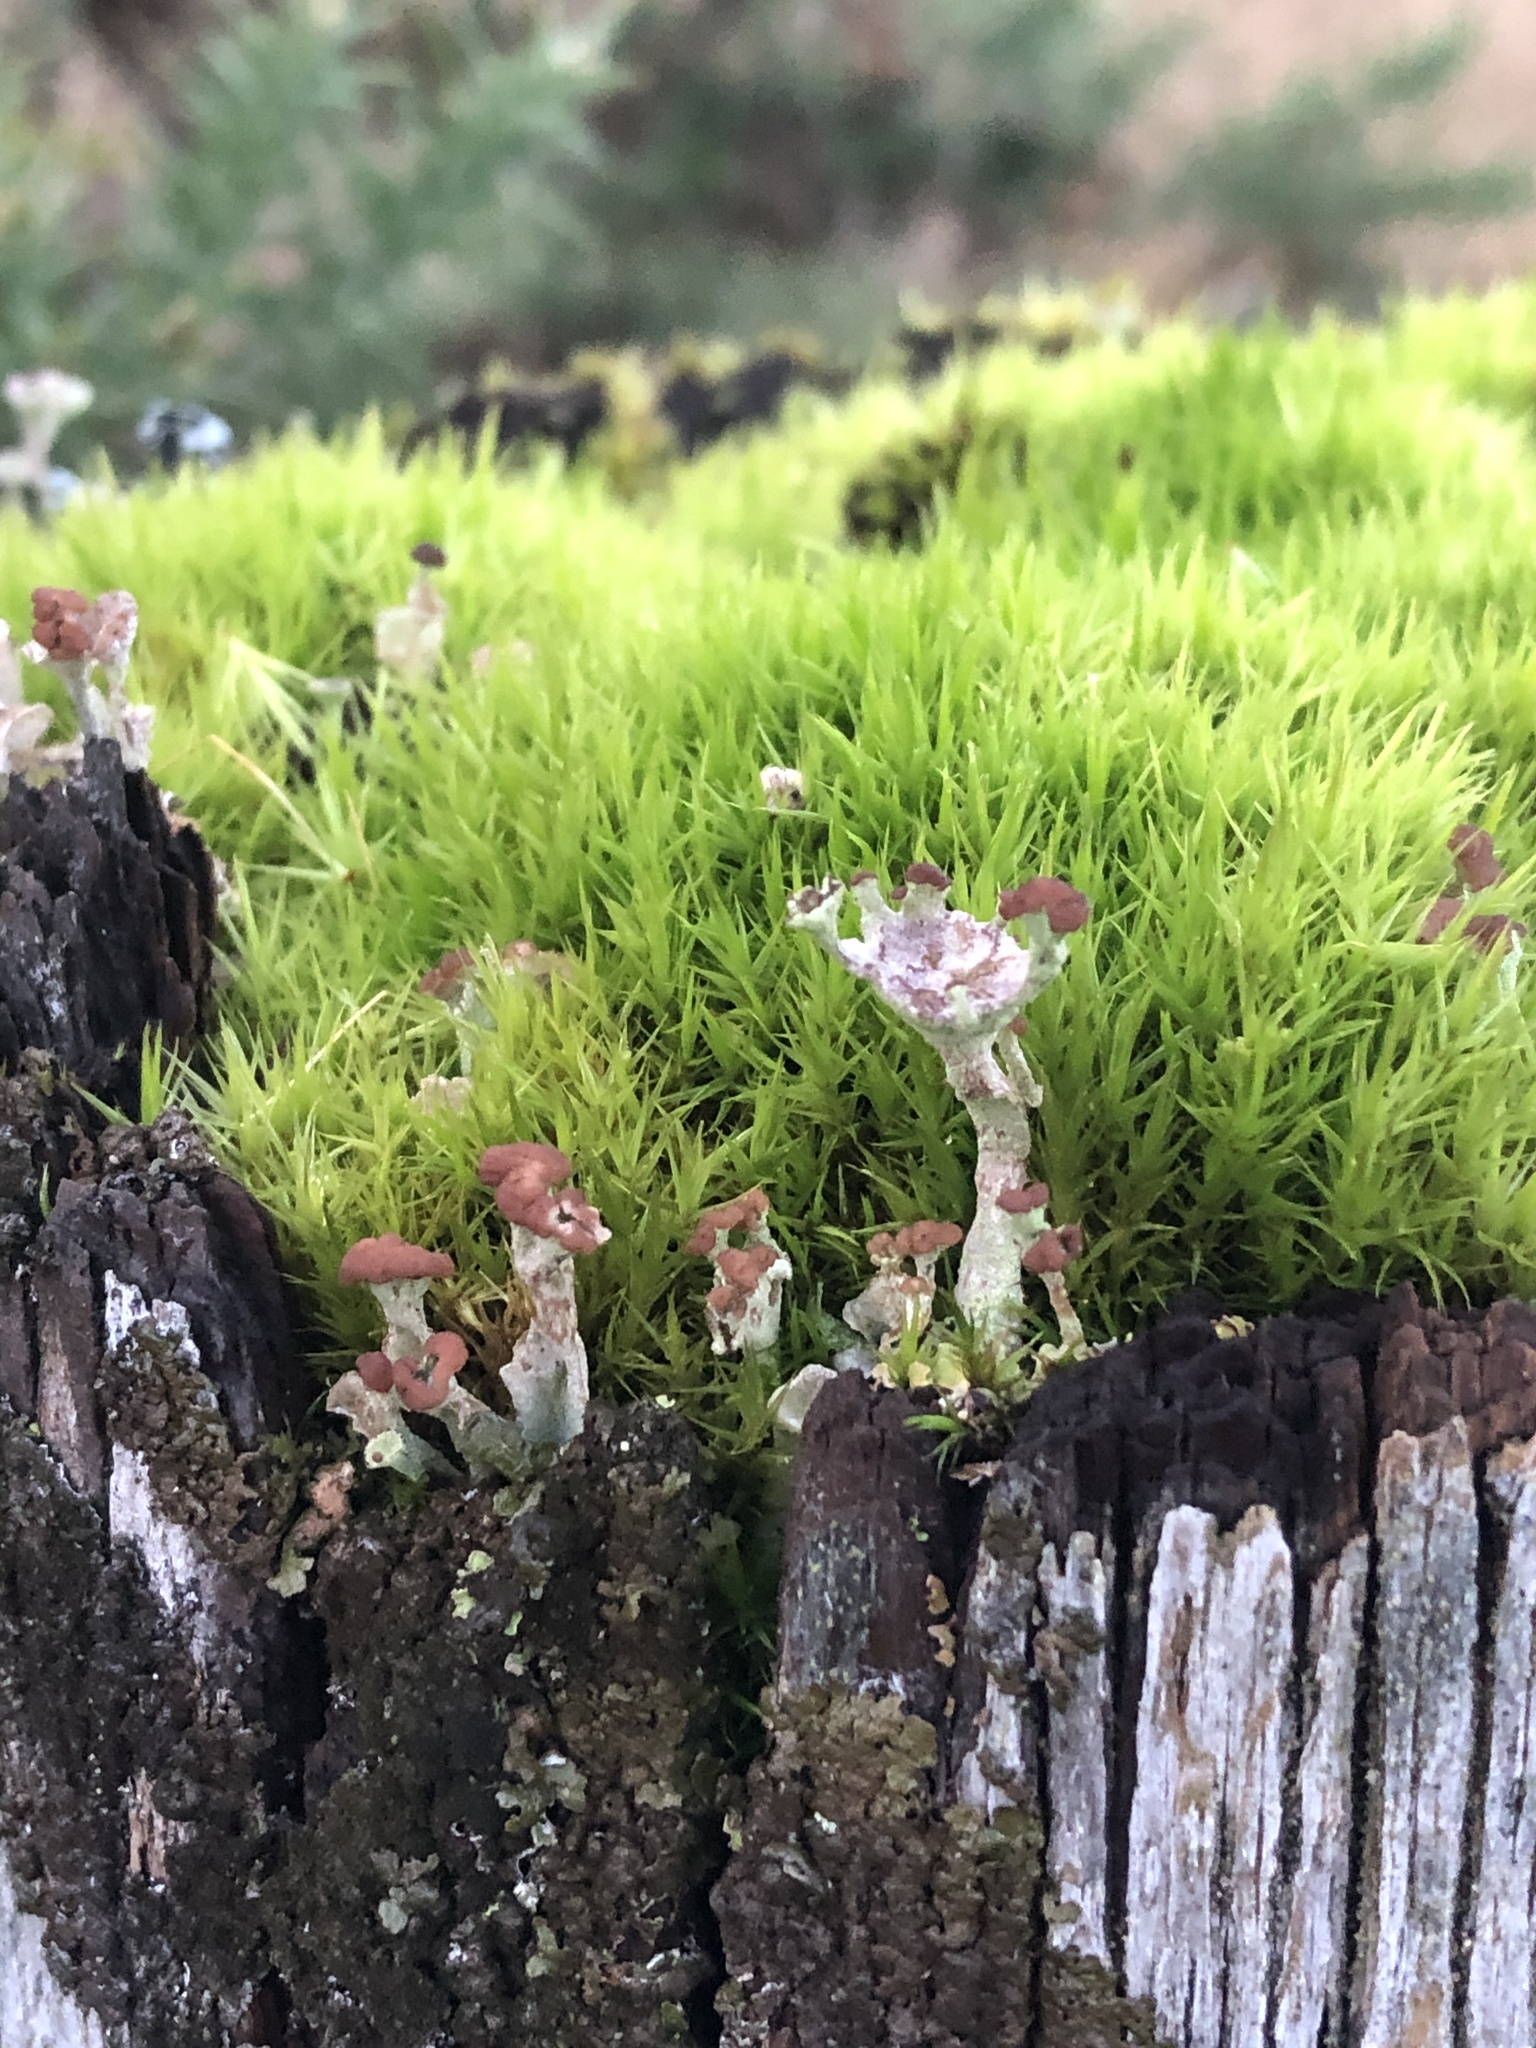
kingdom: Fungi
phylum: Ascomycota
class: Lecanoromycetes
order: Lecanorales
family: Cladoniaceae
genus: Cladonia
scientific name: Cladonia
